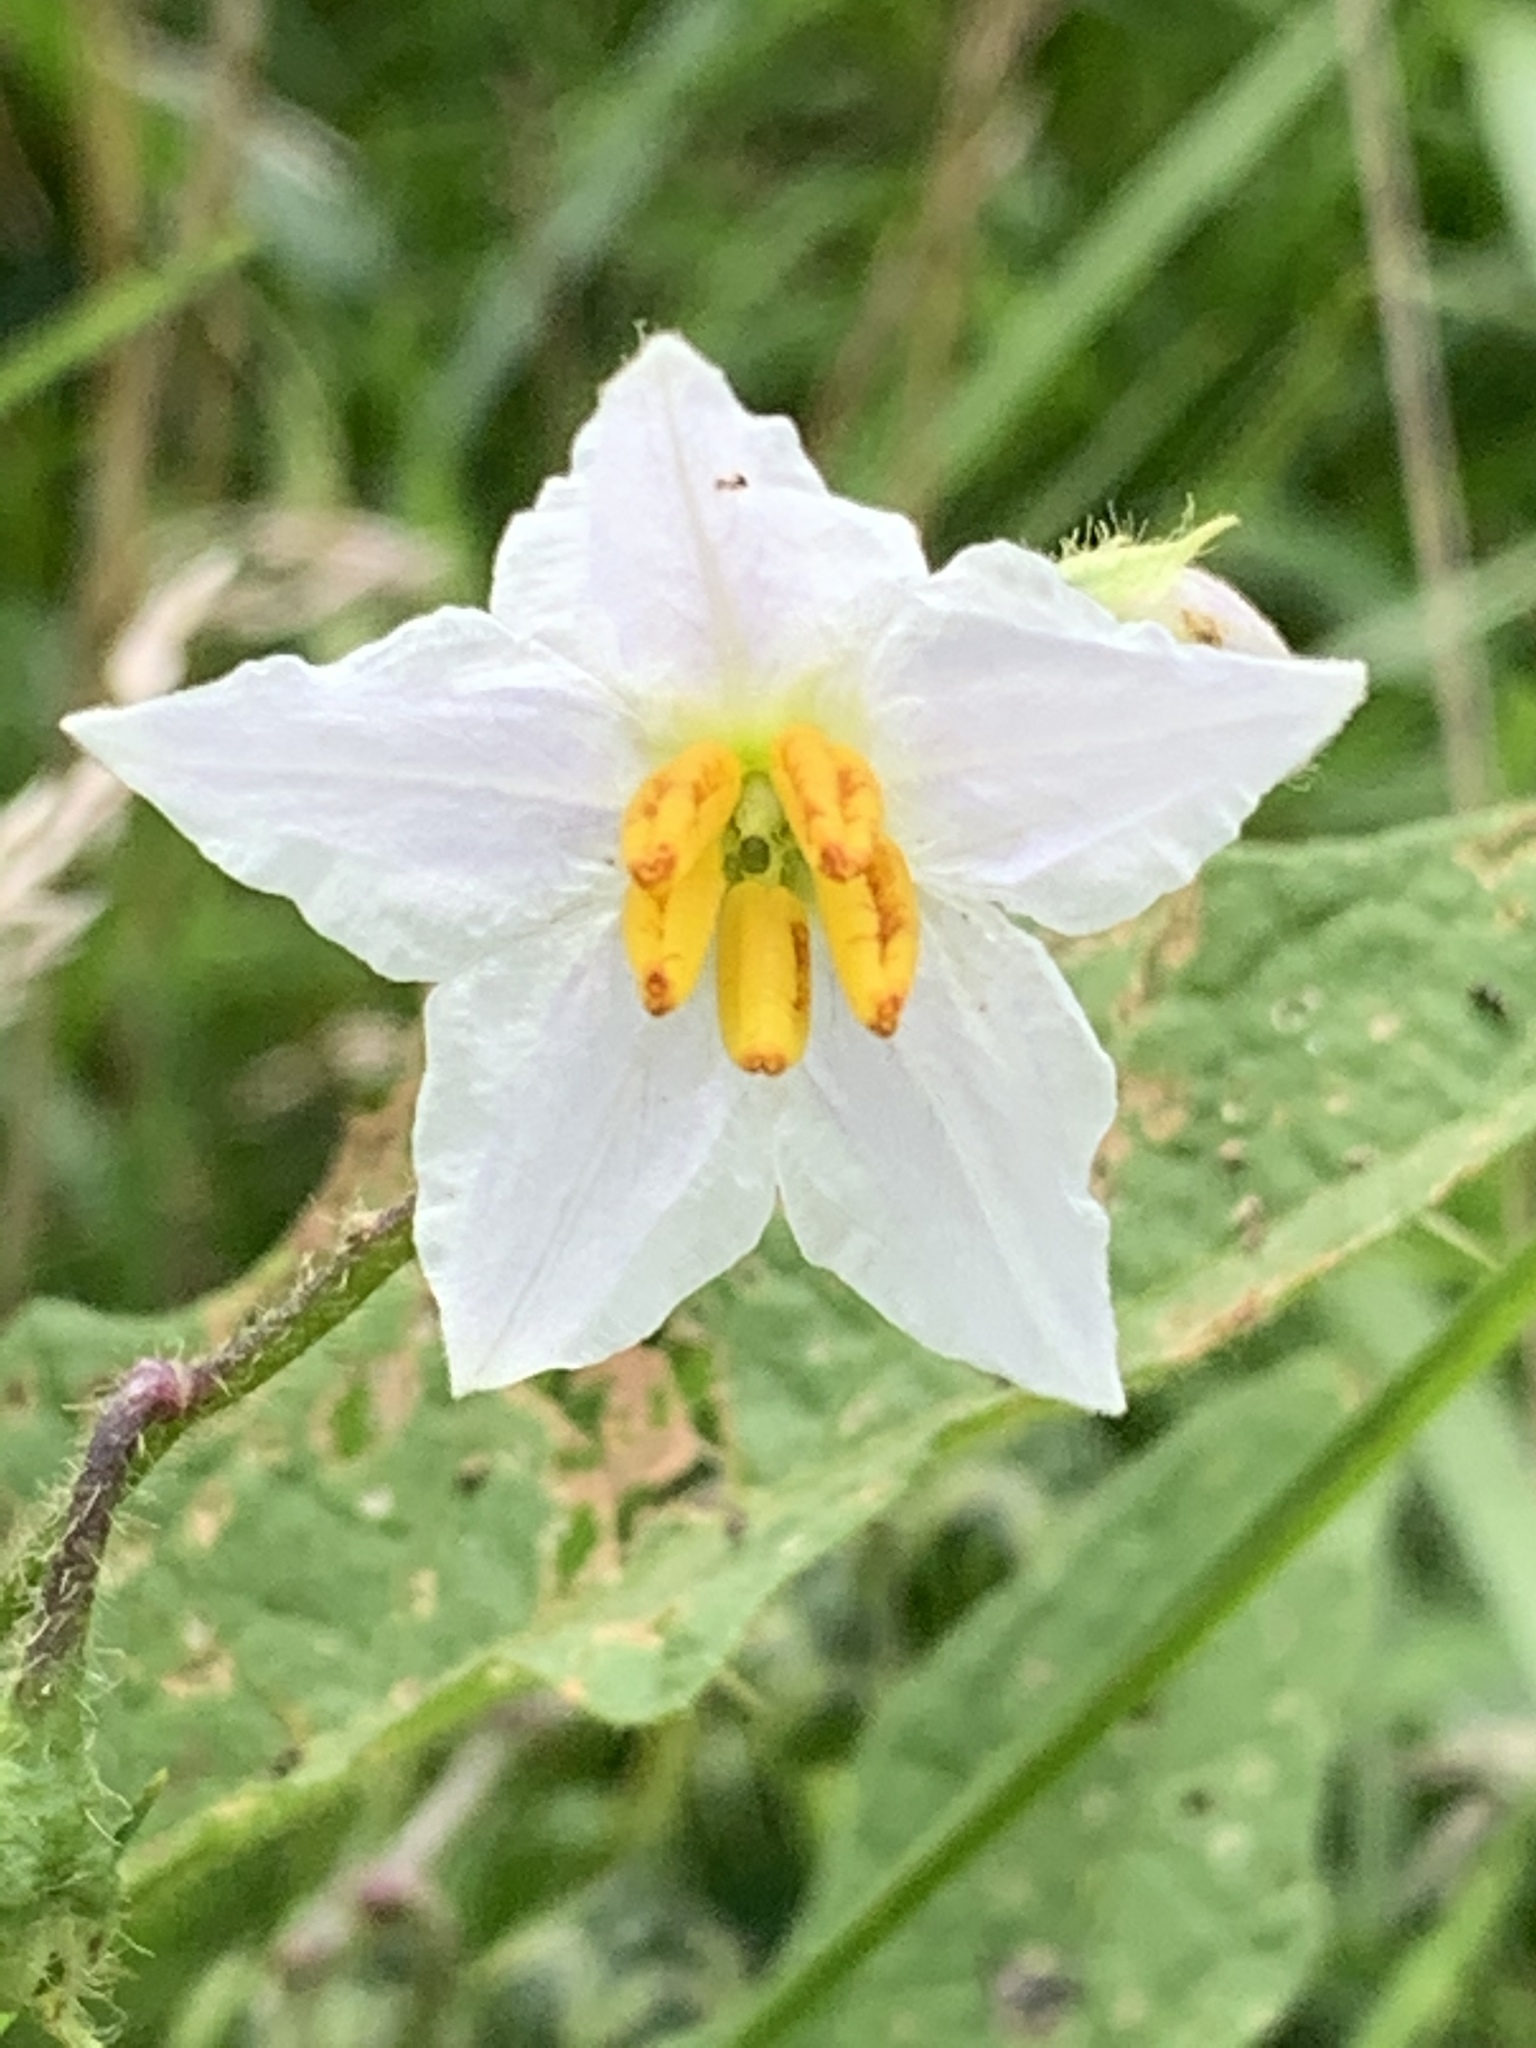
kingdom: Plantae
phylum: Tracheophyta
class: Magnoliopsida
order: Solanales
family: Solanaceae
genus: Solanum
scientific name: Solanum carolinense
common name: Horse-nettle
